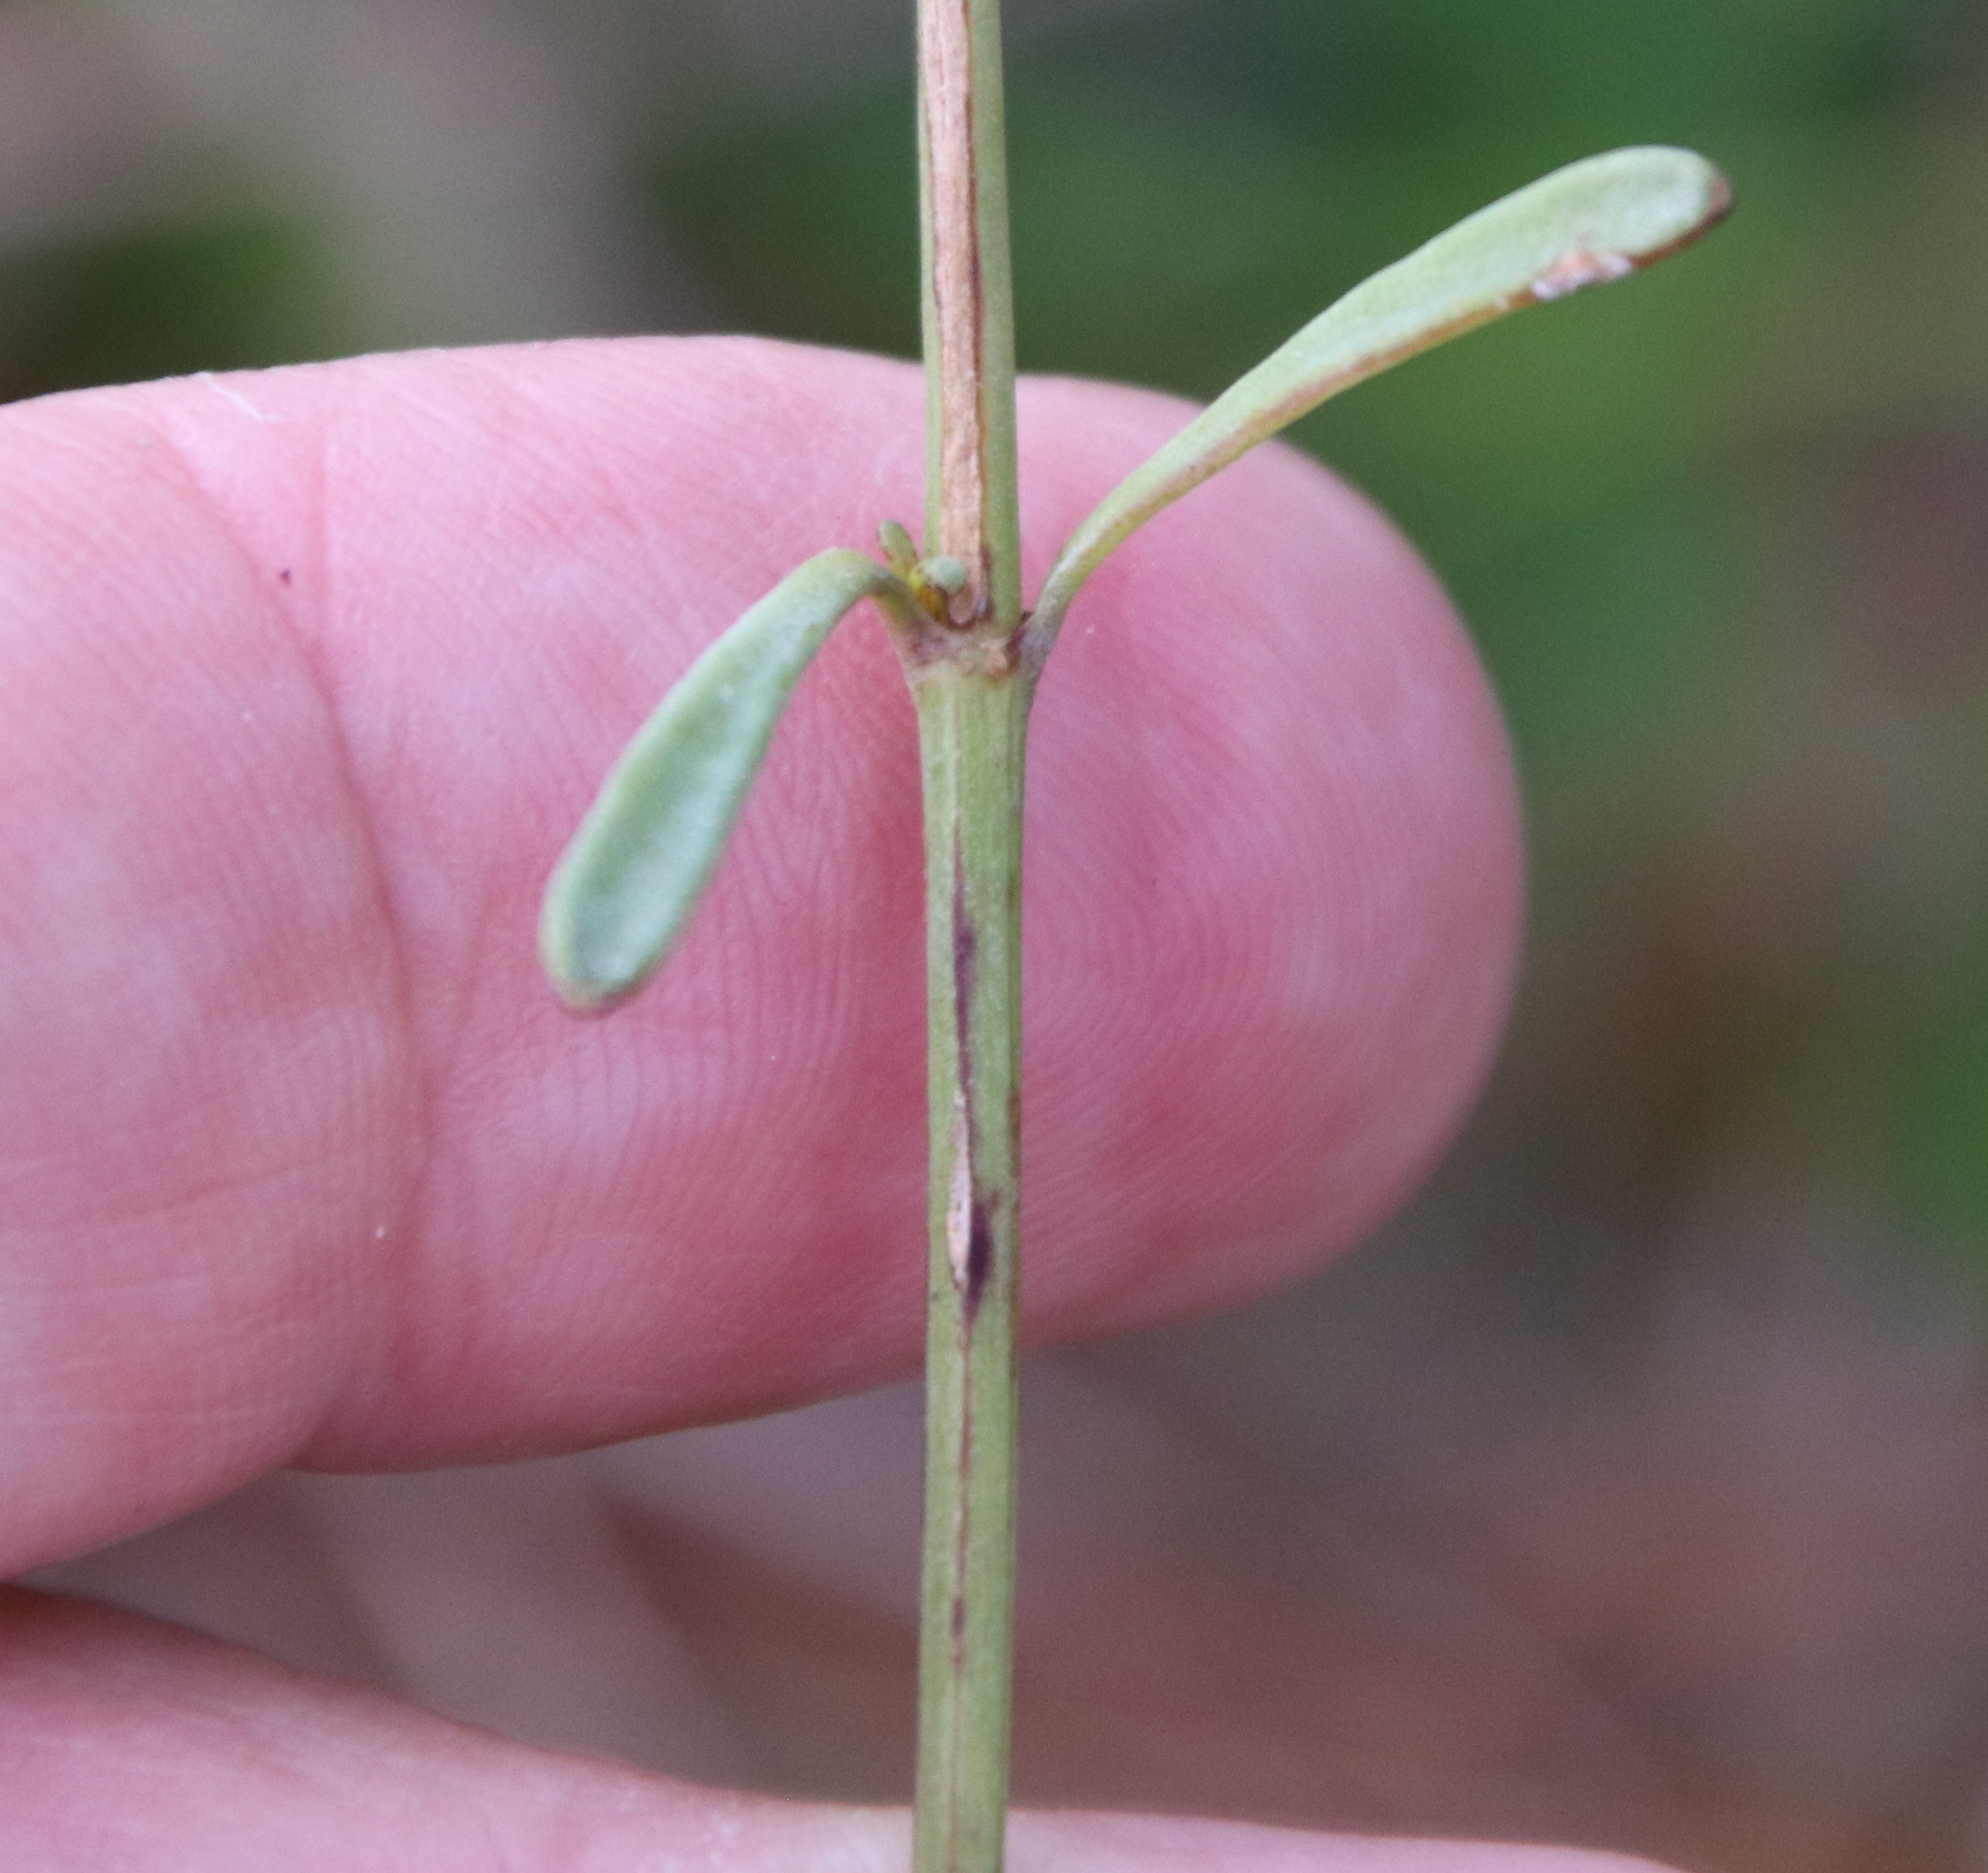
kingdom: Plantae
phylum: Tracheophyta
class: Magnoliopsida
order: Asterales
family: Asteraceae
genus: Coreopsis
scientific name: Coreopsis gladiata
